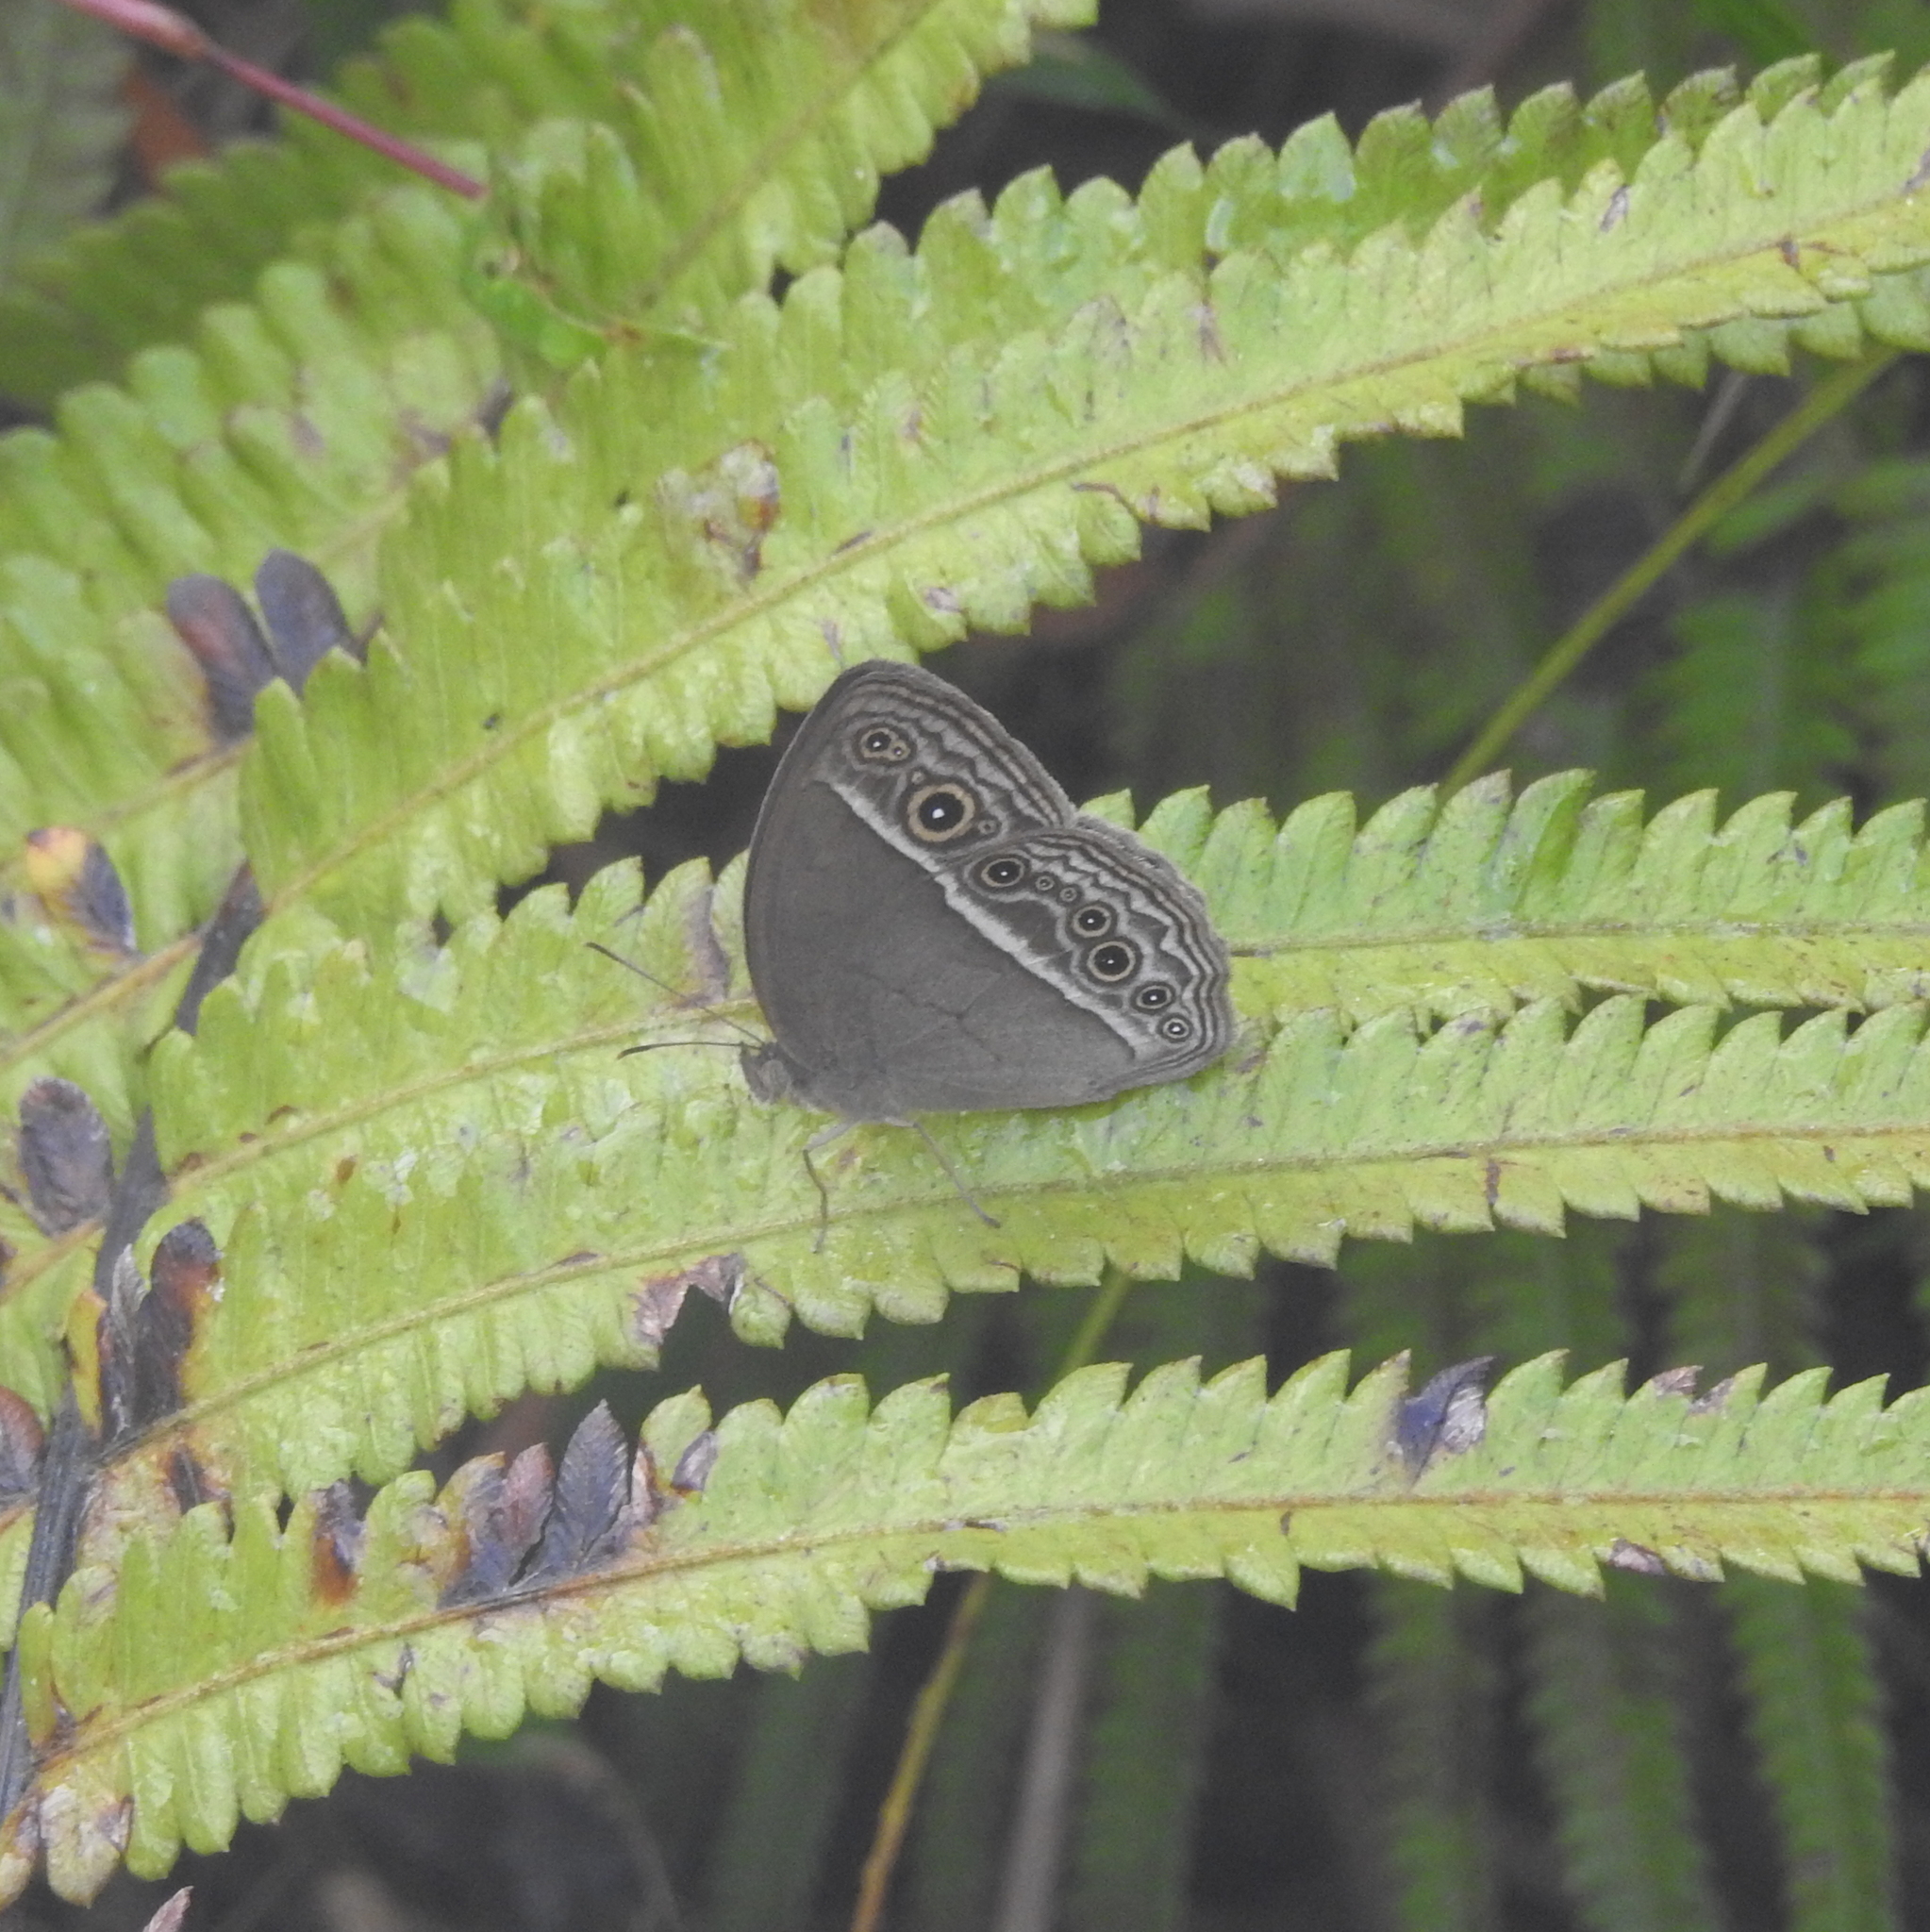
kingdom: Animalia
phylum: Arthropoda
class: Insecta
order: Lepidoptera
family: Nymphalidae
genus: Mycalesis
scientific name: Mycalesis visala
